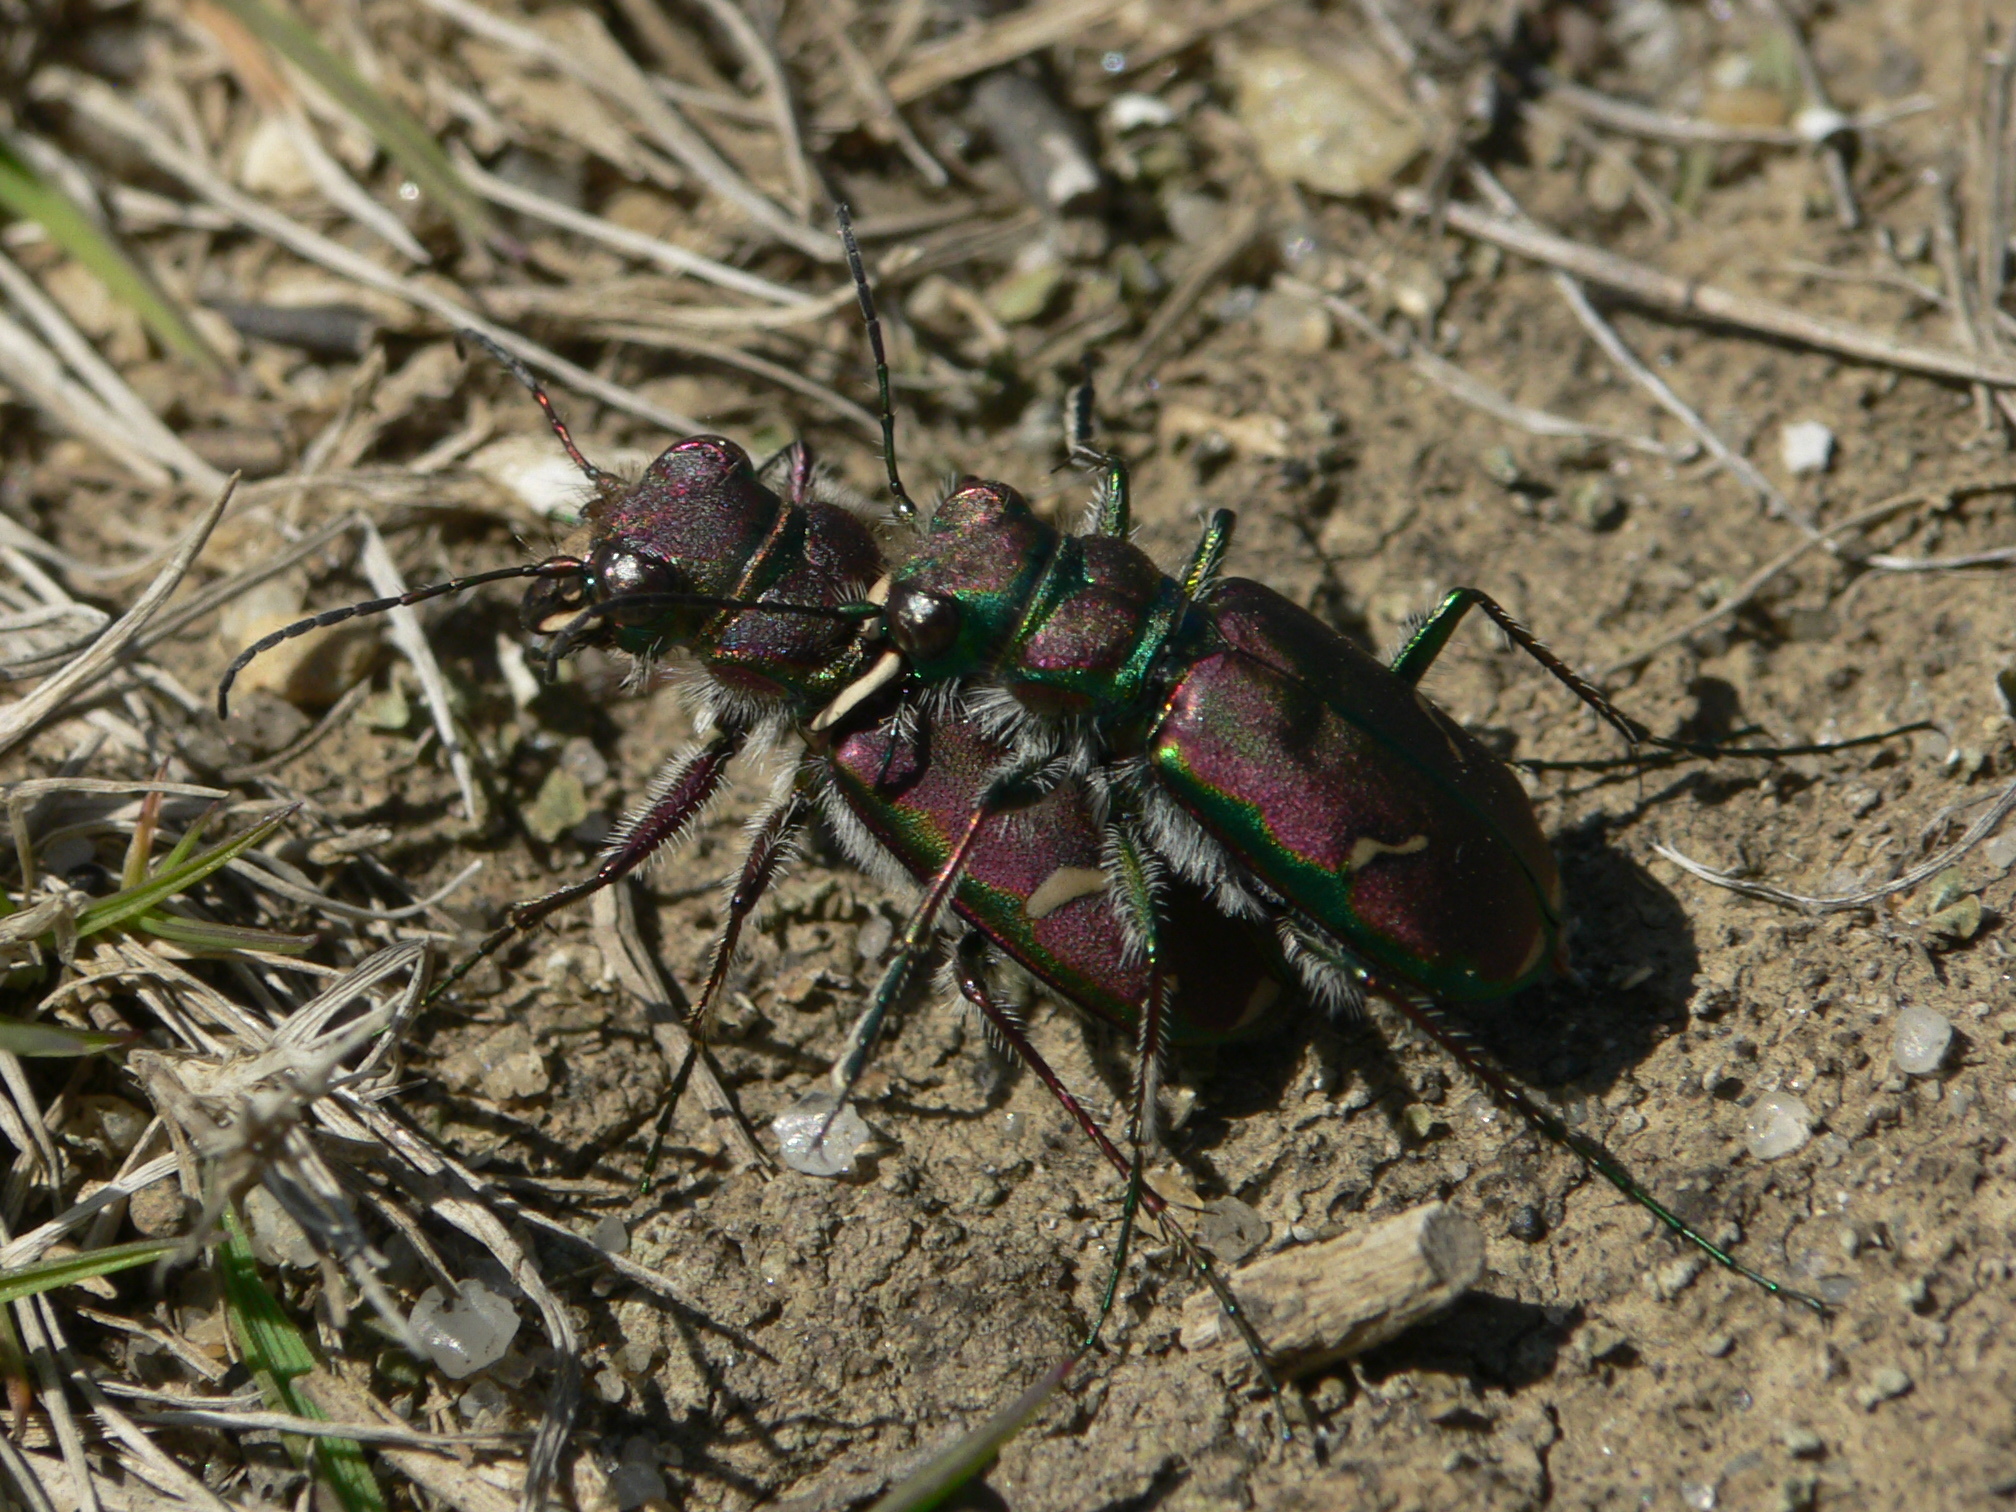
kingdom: Animalia
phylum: Arthropoda
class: Insecta
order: Coleoptera
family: Carabidae
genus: Cicindela
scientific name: Cicindela purpurea
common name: Cow path tiger beetle
